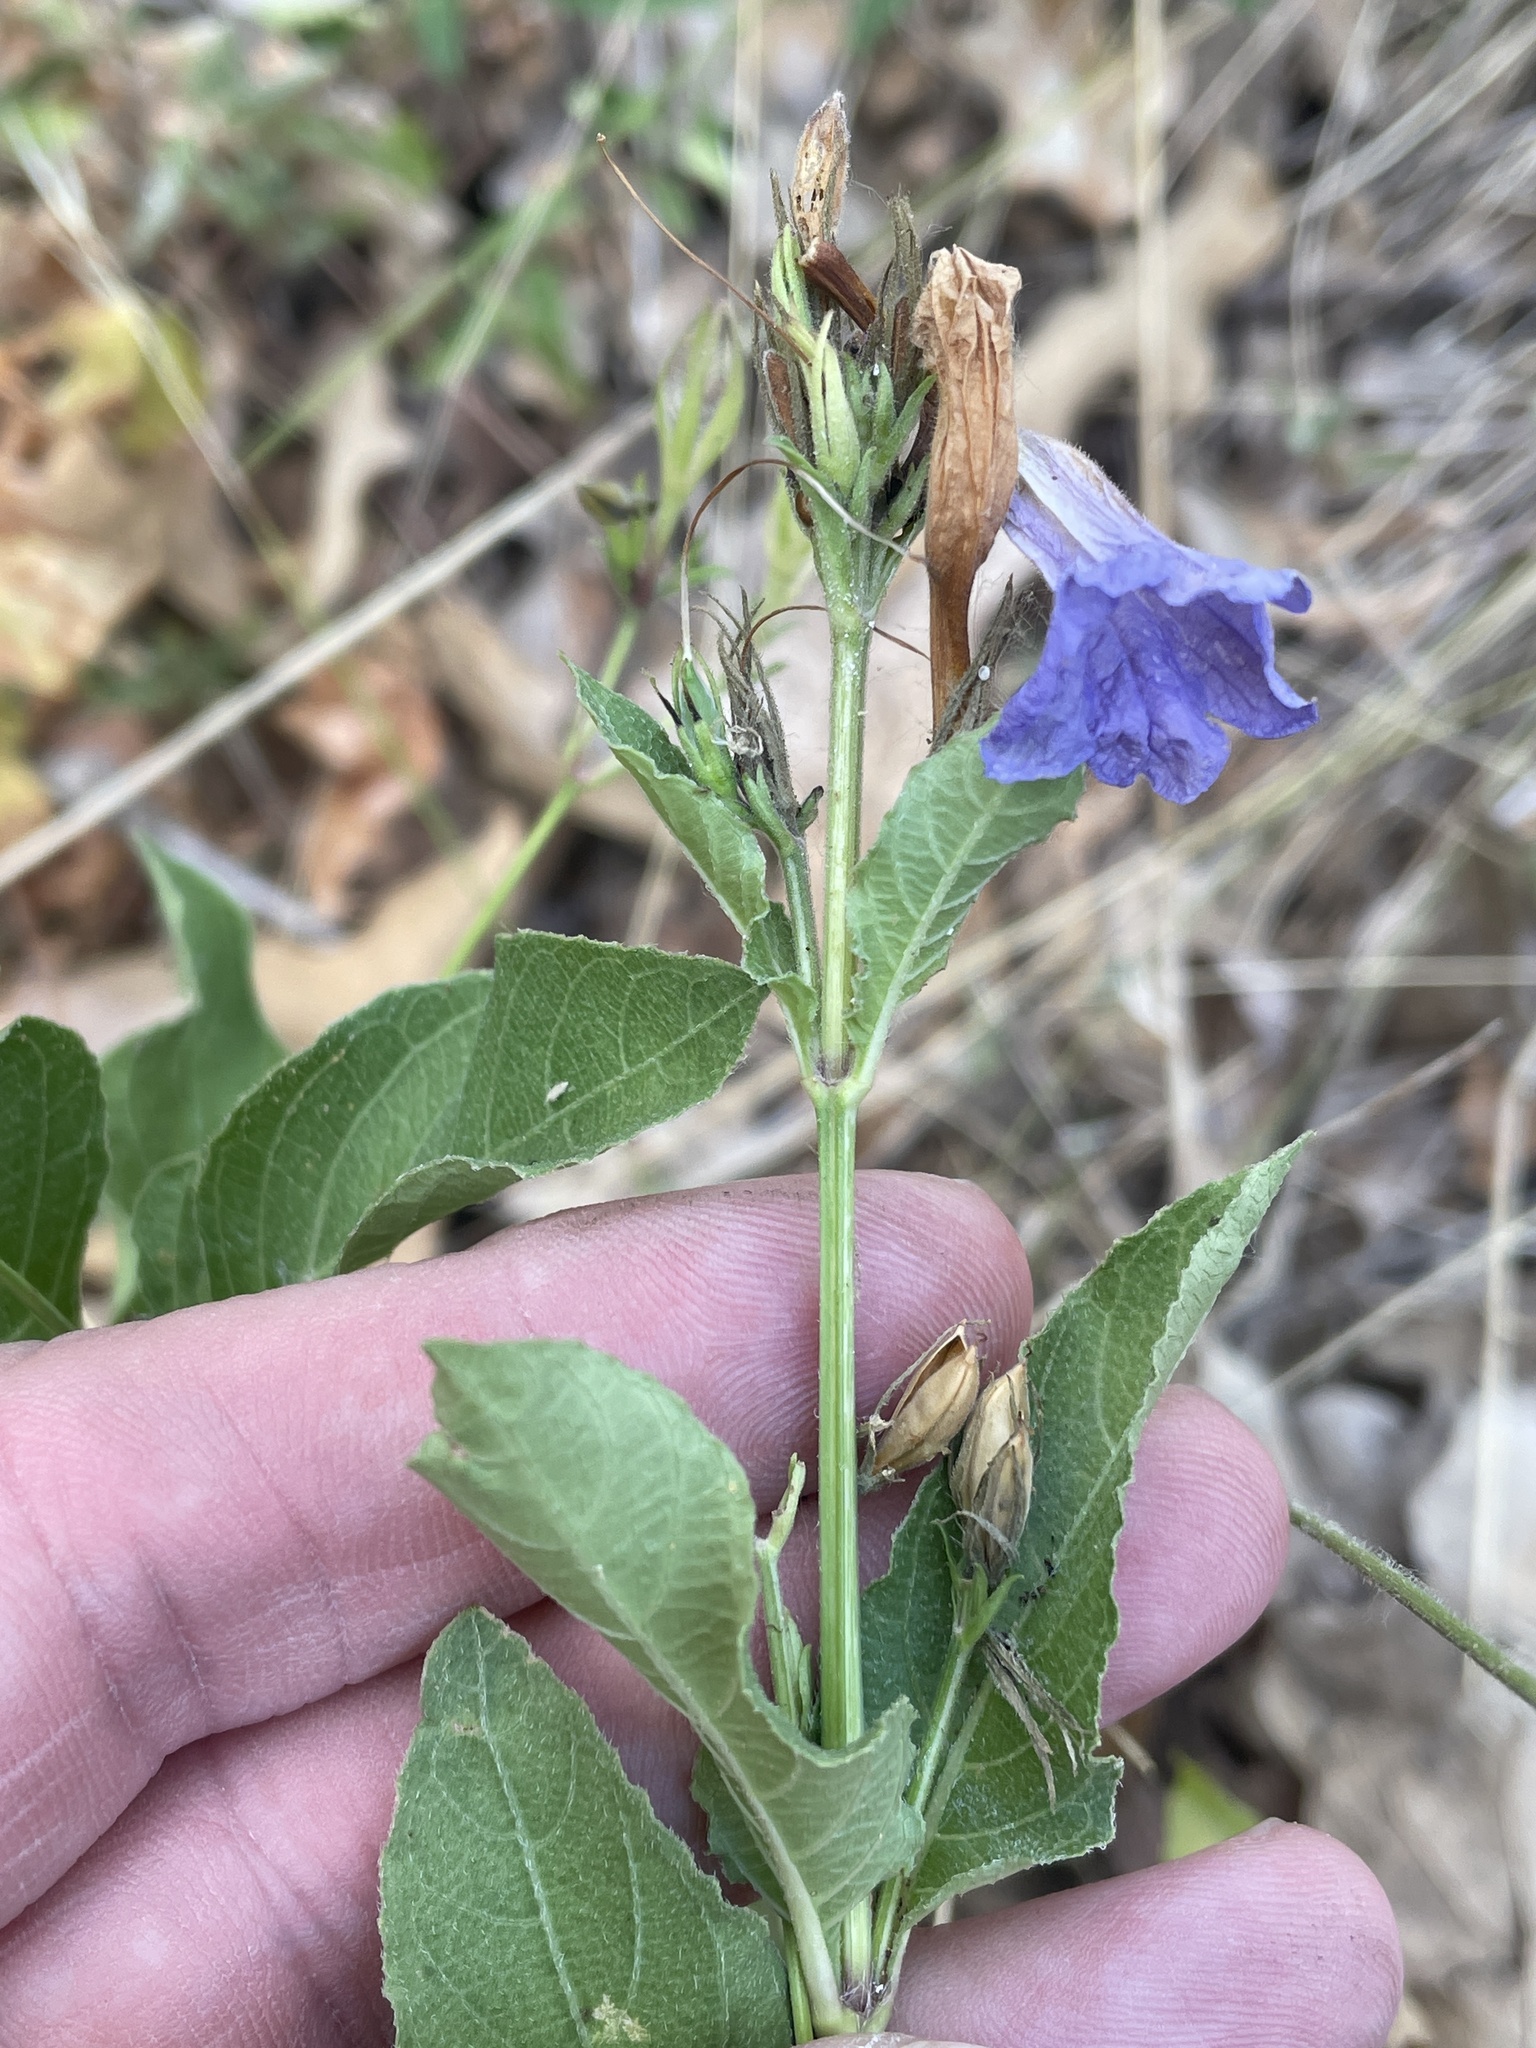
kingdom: Plantae
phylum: Tracheophyta
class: Magnoliopsida
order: Lamiales
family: Acanthaceae
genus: Ruellia
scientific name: Ruellia ciliatiflora
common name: Hairyflower wild petunia
